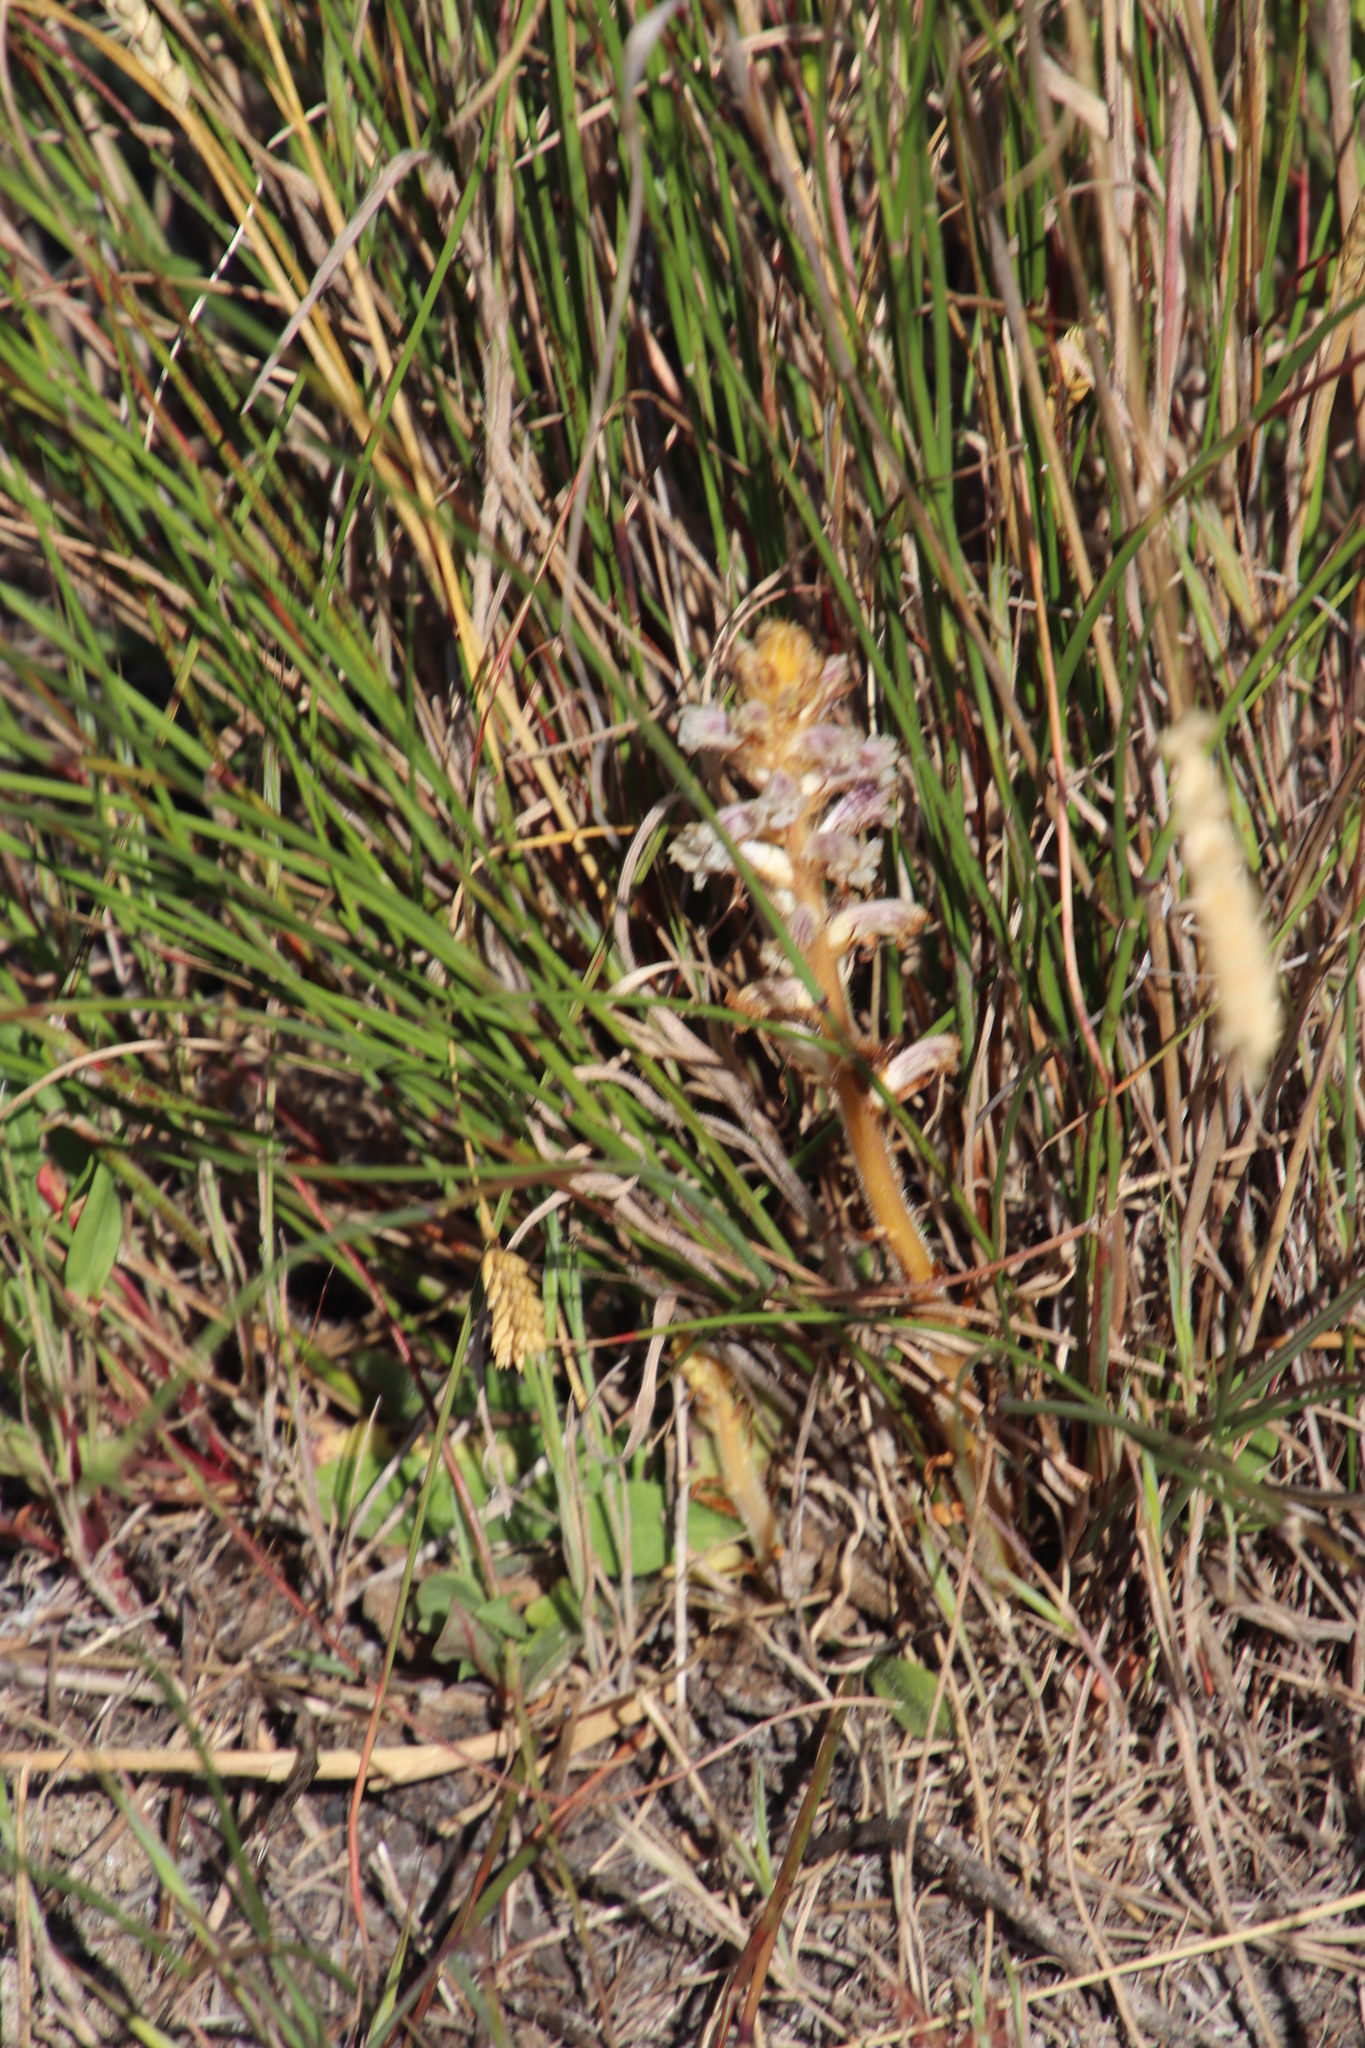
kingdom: Plantae
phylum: Tracheophyta
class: Magnoliopsida
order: Lamiales
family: Orobanchaceae
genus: Orobanche
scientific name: Orobanche minor
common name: Common broomrape
